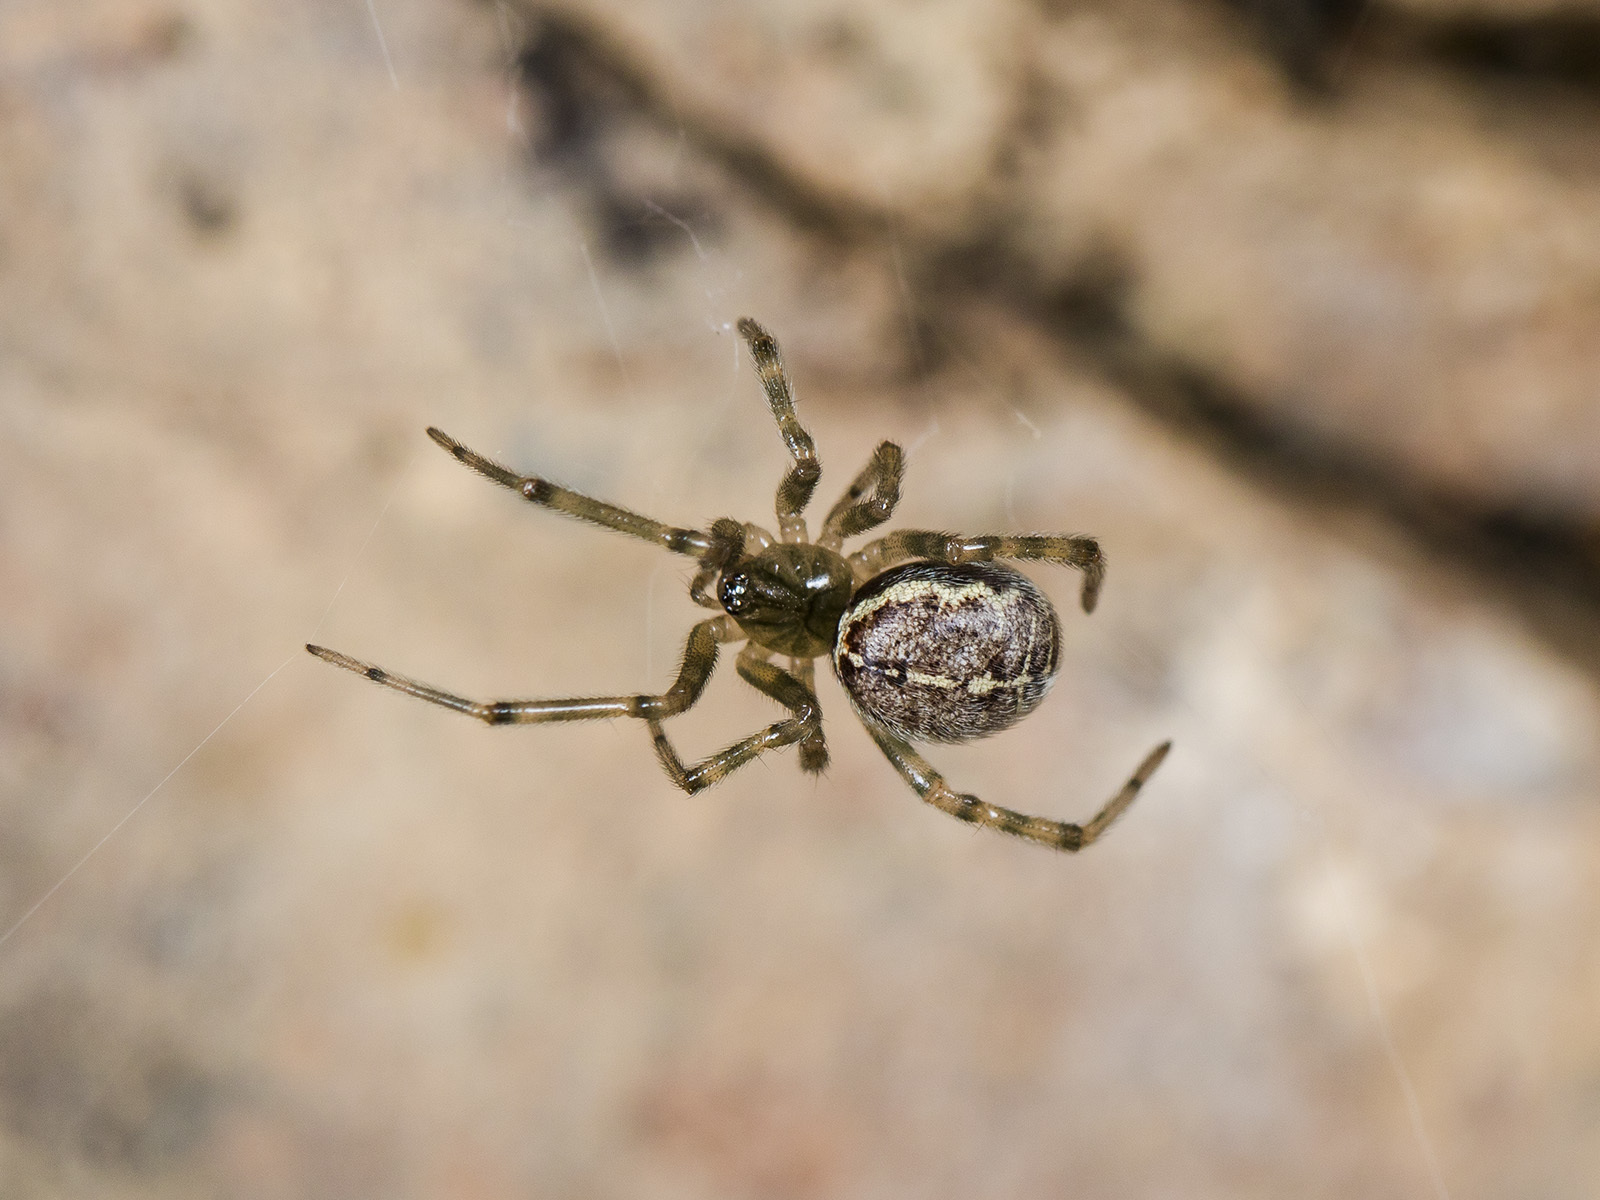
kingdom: Animalia
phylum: Arthropoda
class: Arachnida
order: Araneae
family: Theridiidae
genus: Steatoda
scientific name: Steatoda castanea
